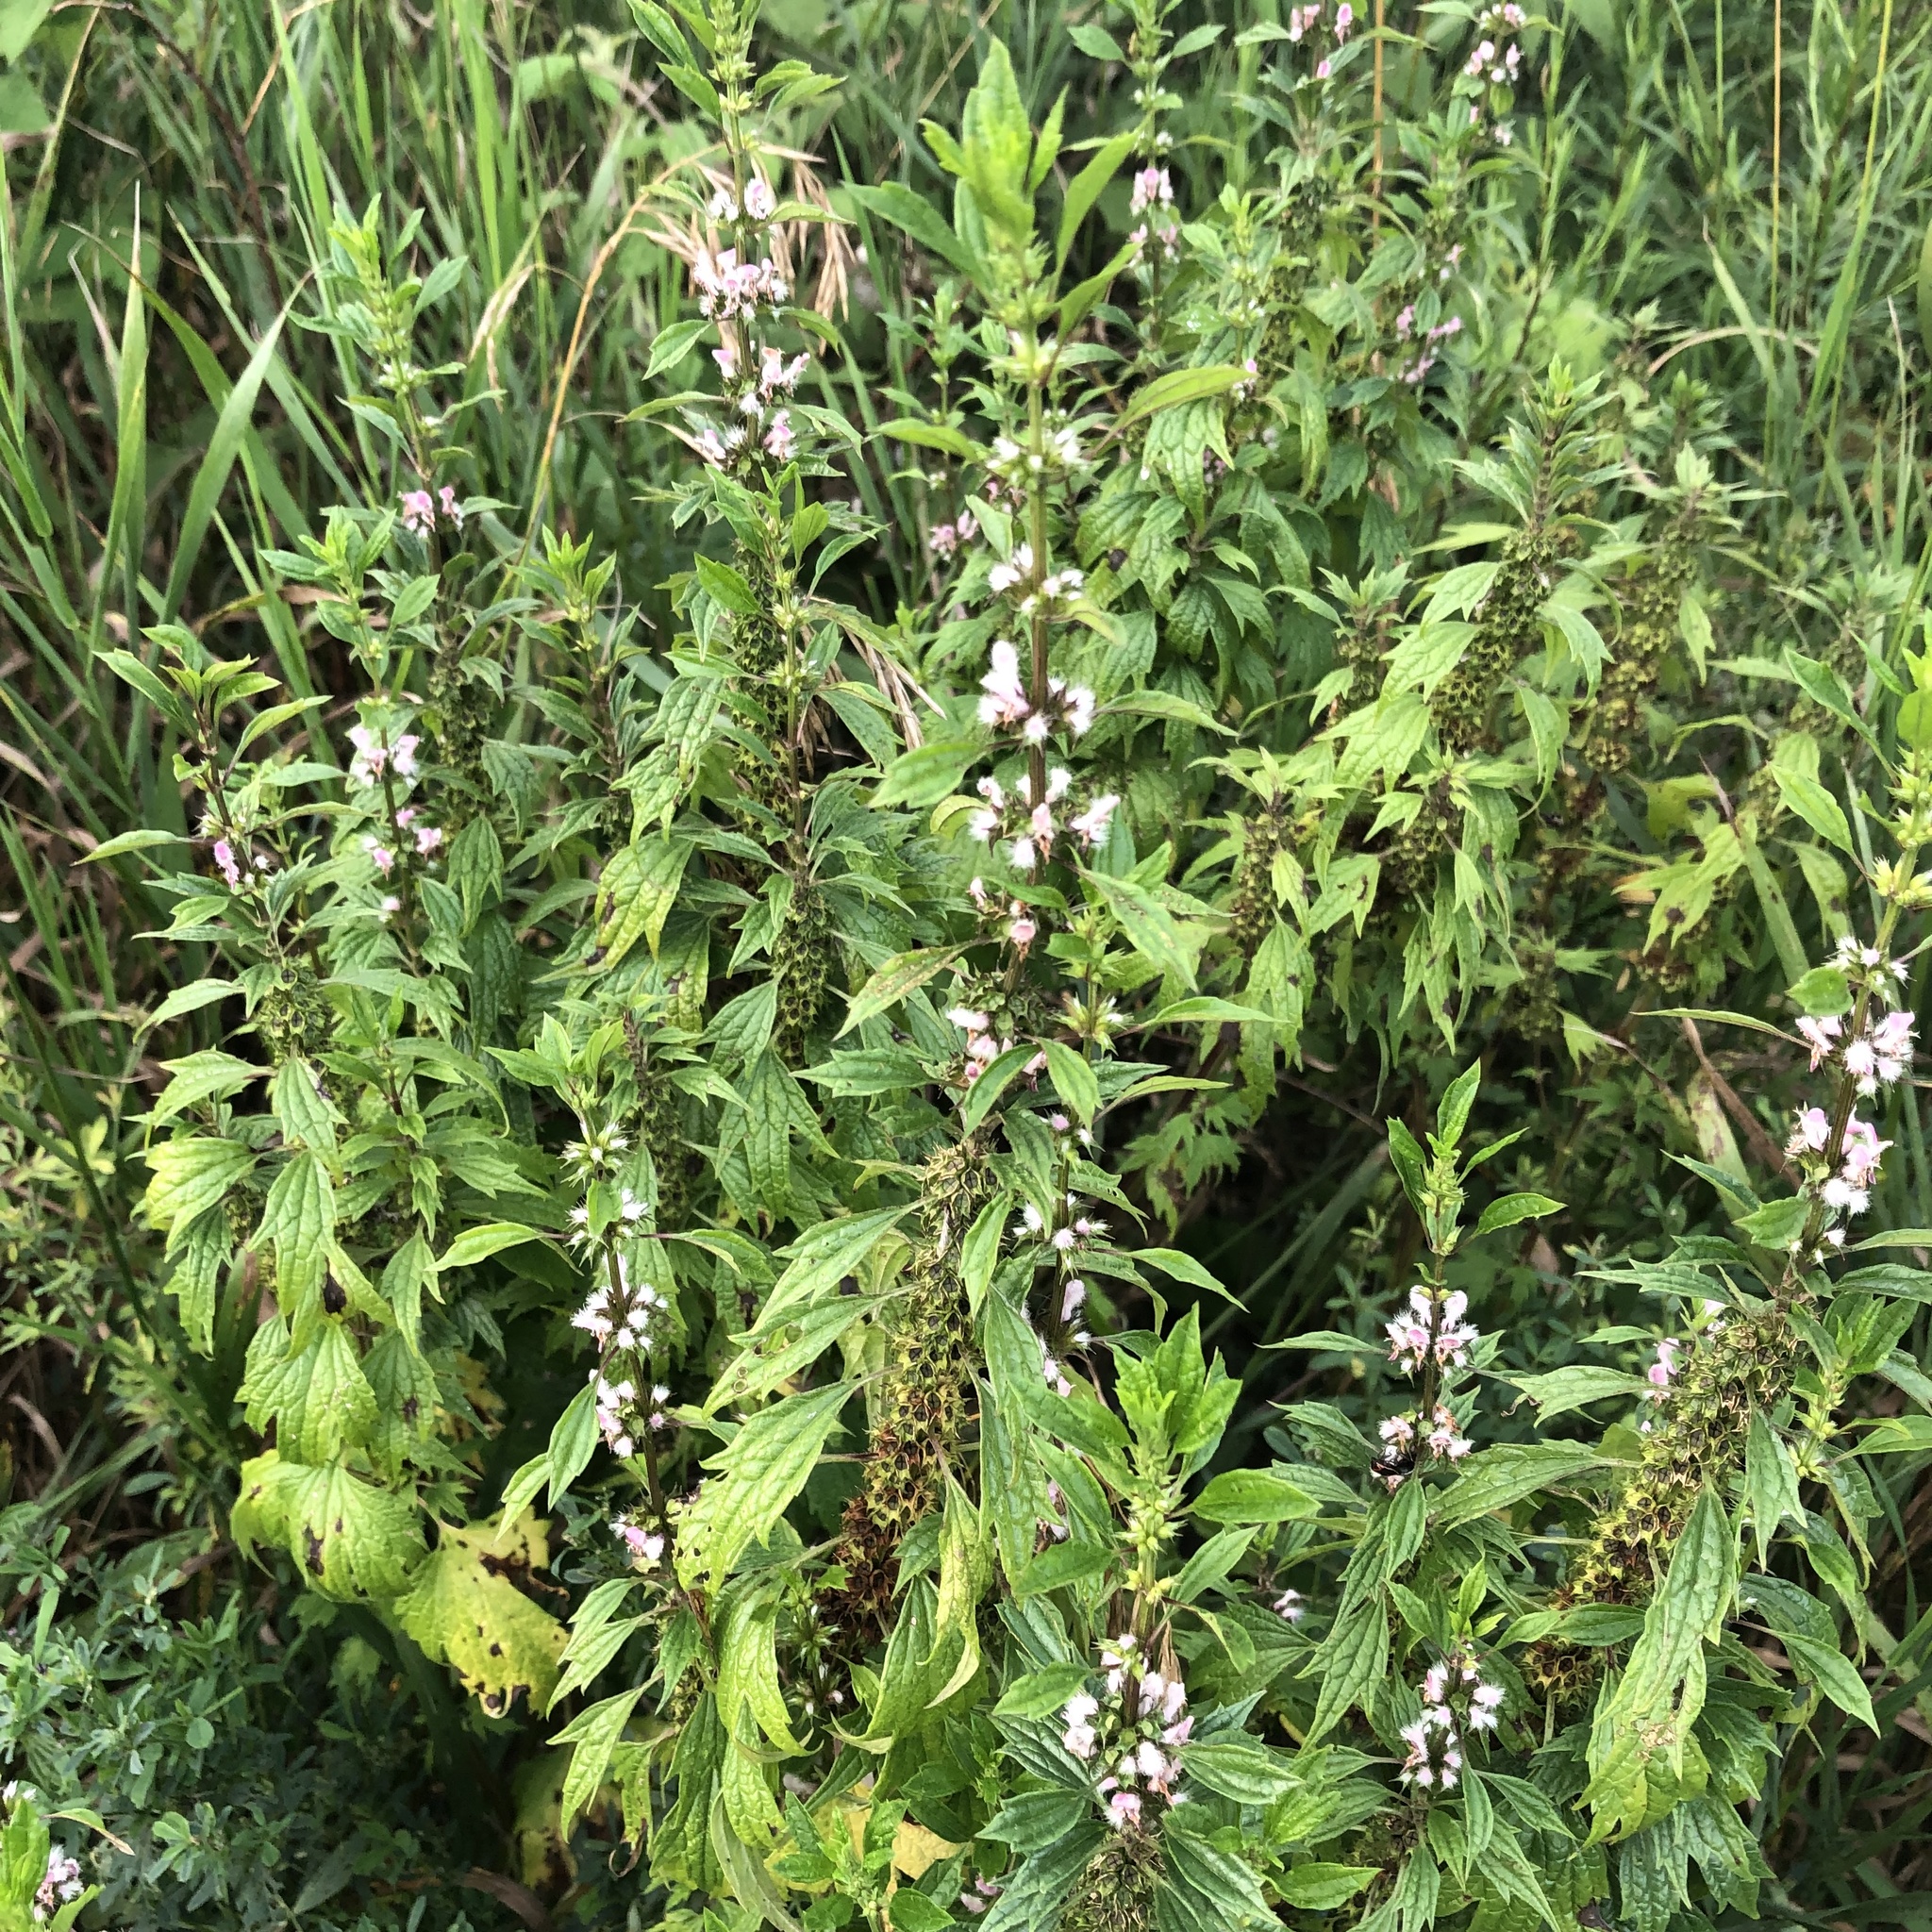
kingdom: Plantae
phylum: Tracheophyta
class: Magnoliopsida
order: Lamiales
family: Lamiaceae
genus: Leonurus
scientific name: Leonurus cardiaca
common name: Motherwort
